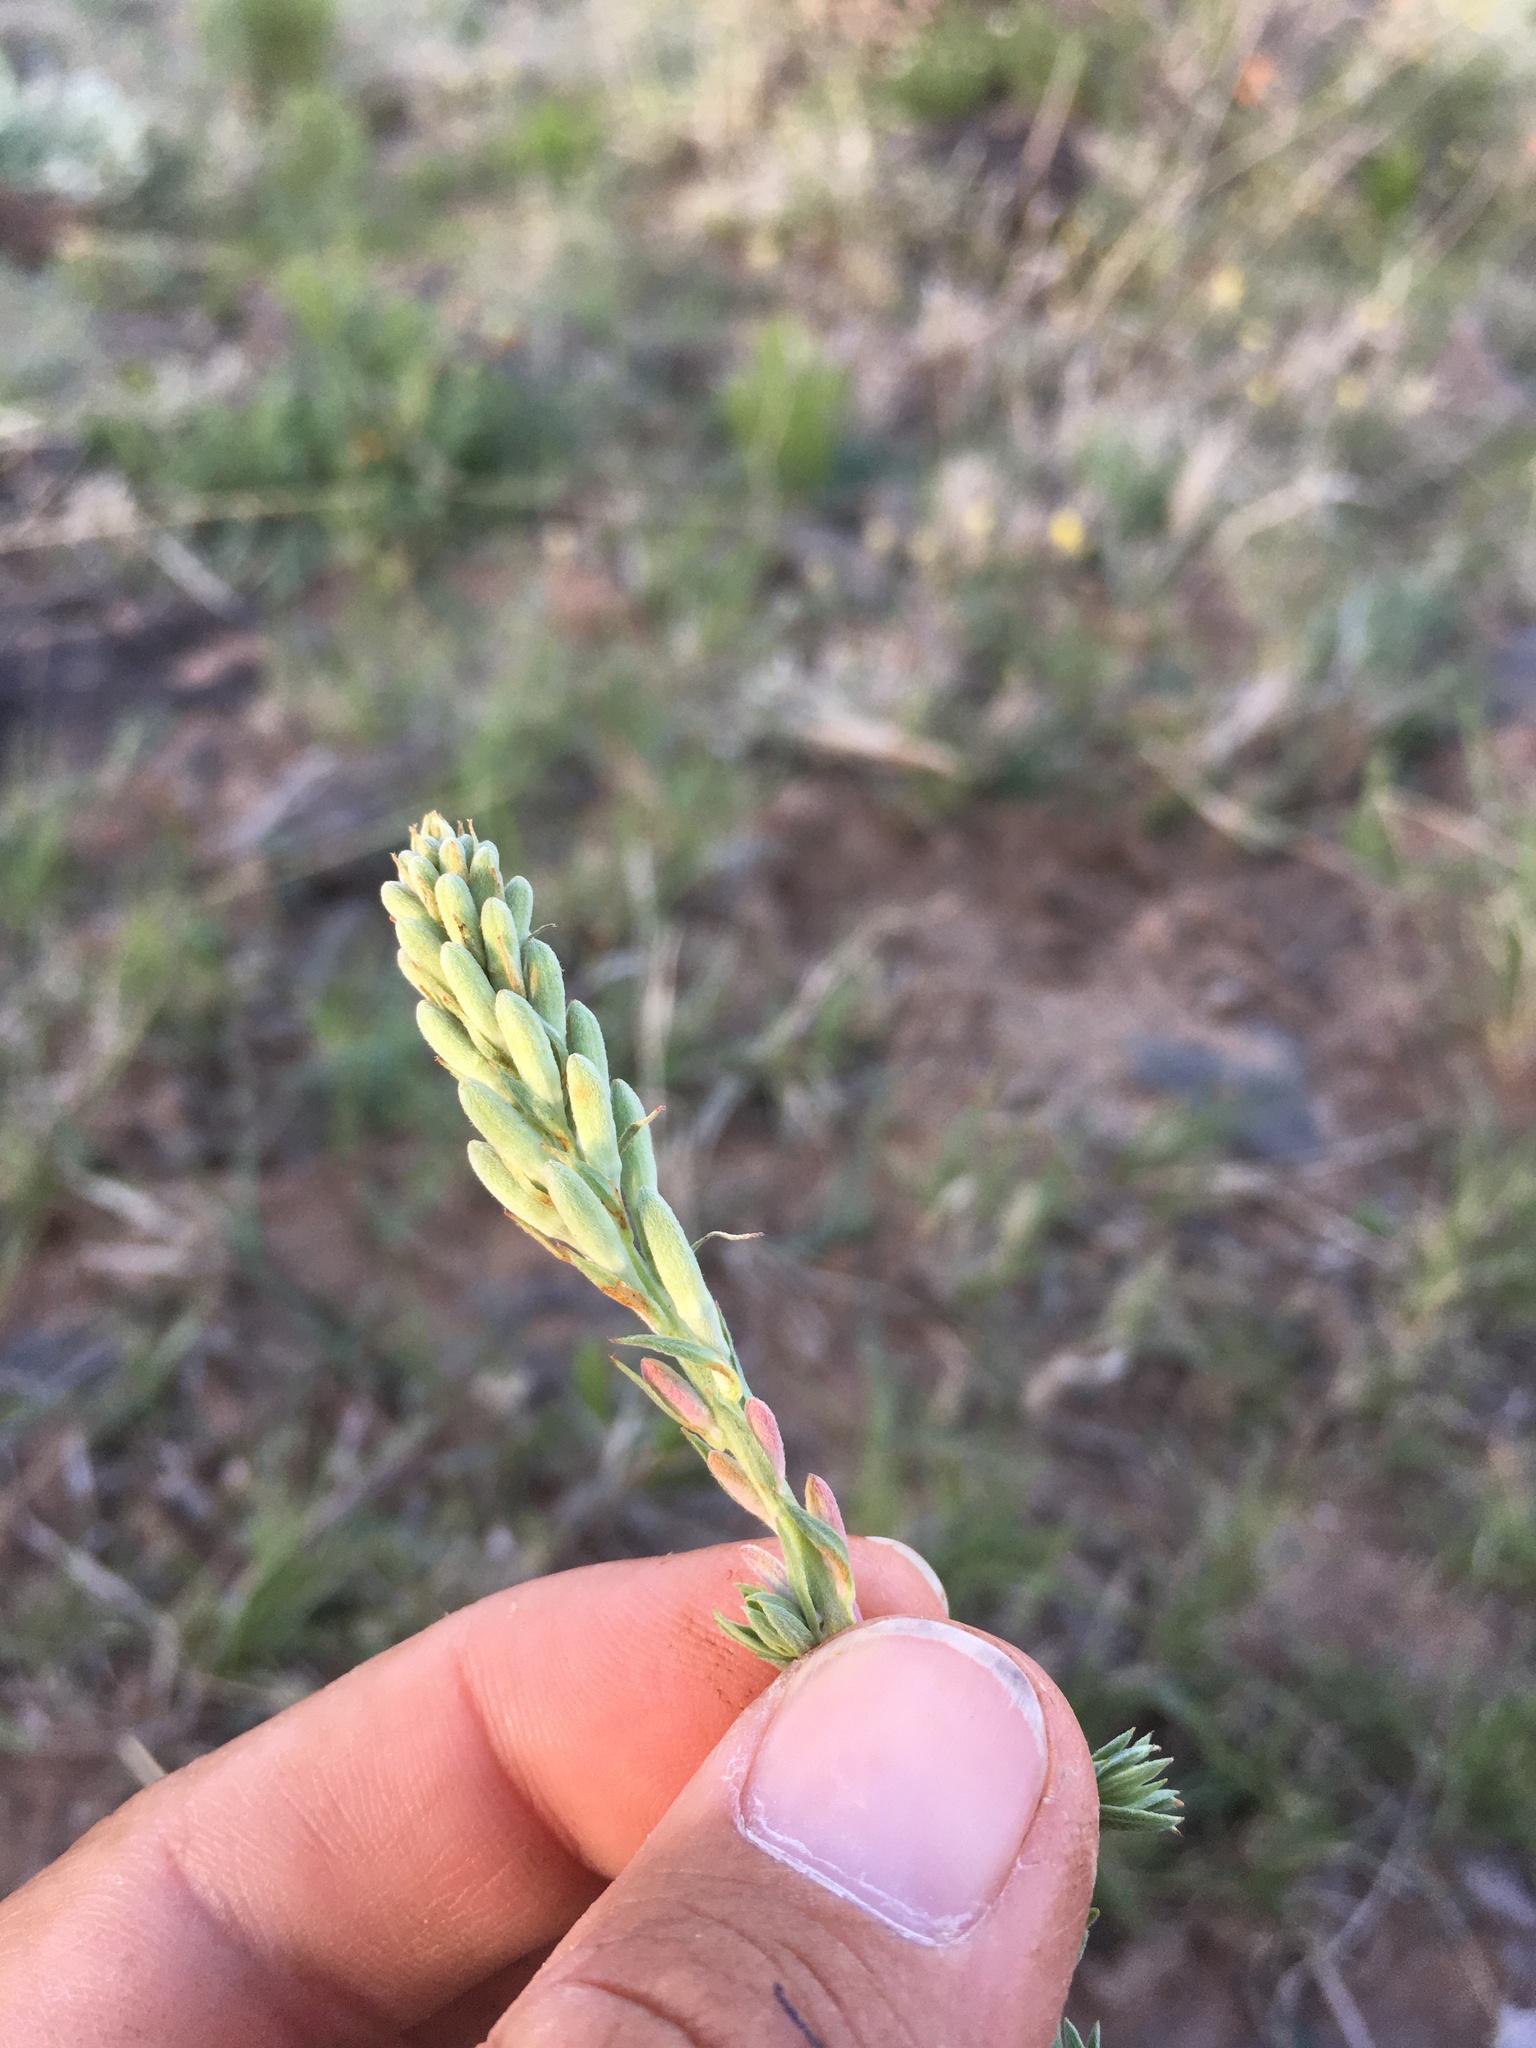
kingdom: Plantae
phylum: Tracheophyta
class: Magnoliopsida
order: Myrtales
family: Onagraceae
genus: Oenothera
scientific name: Oenothera suffrutescens
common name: Scarlet beeblossom
